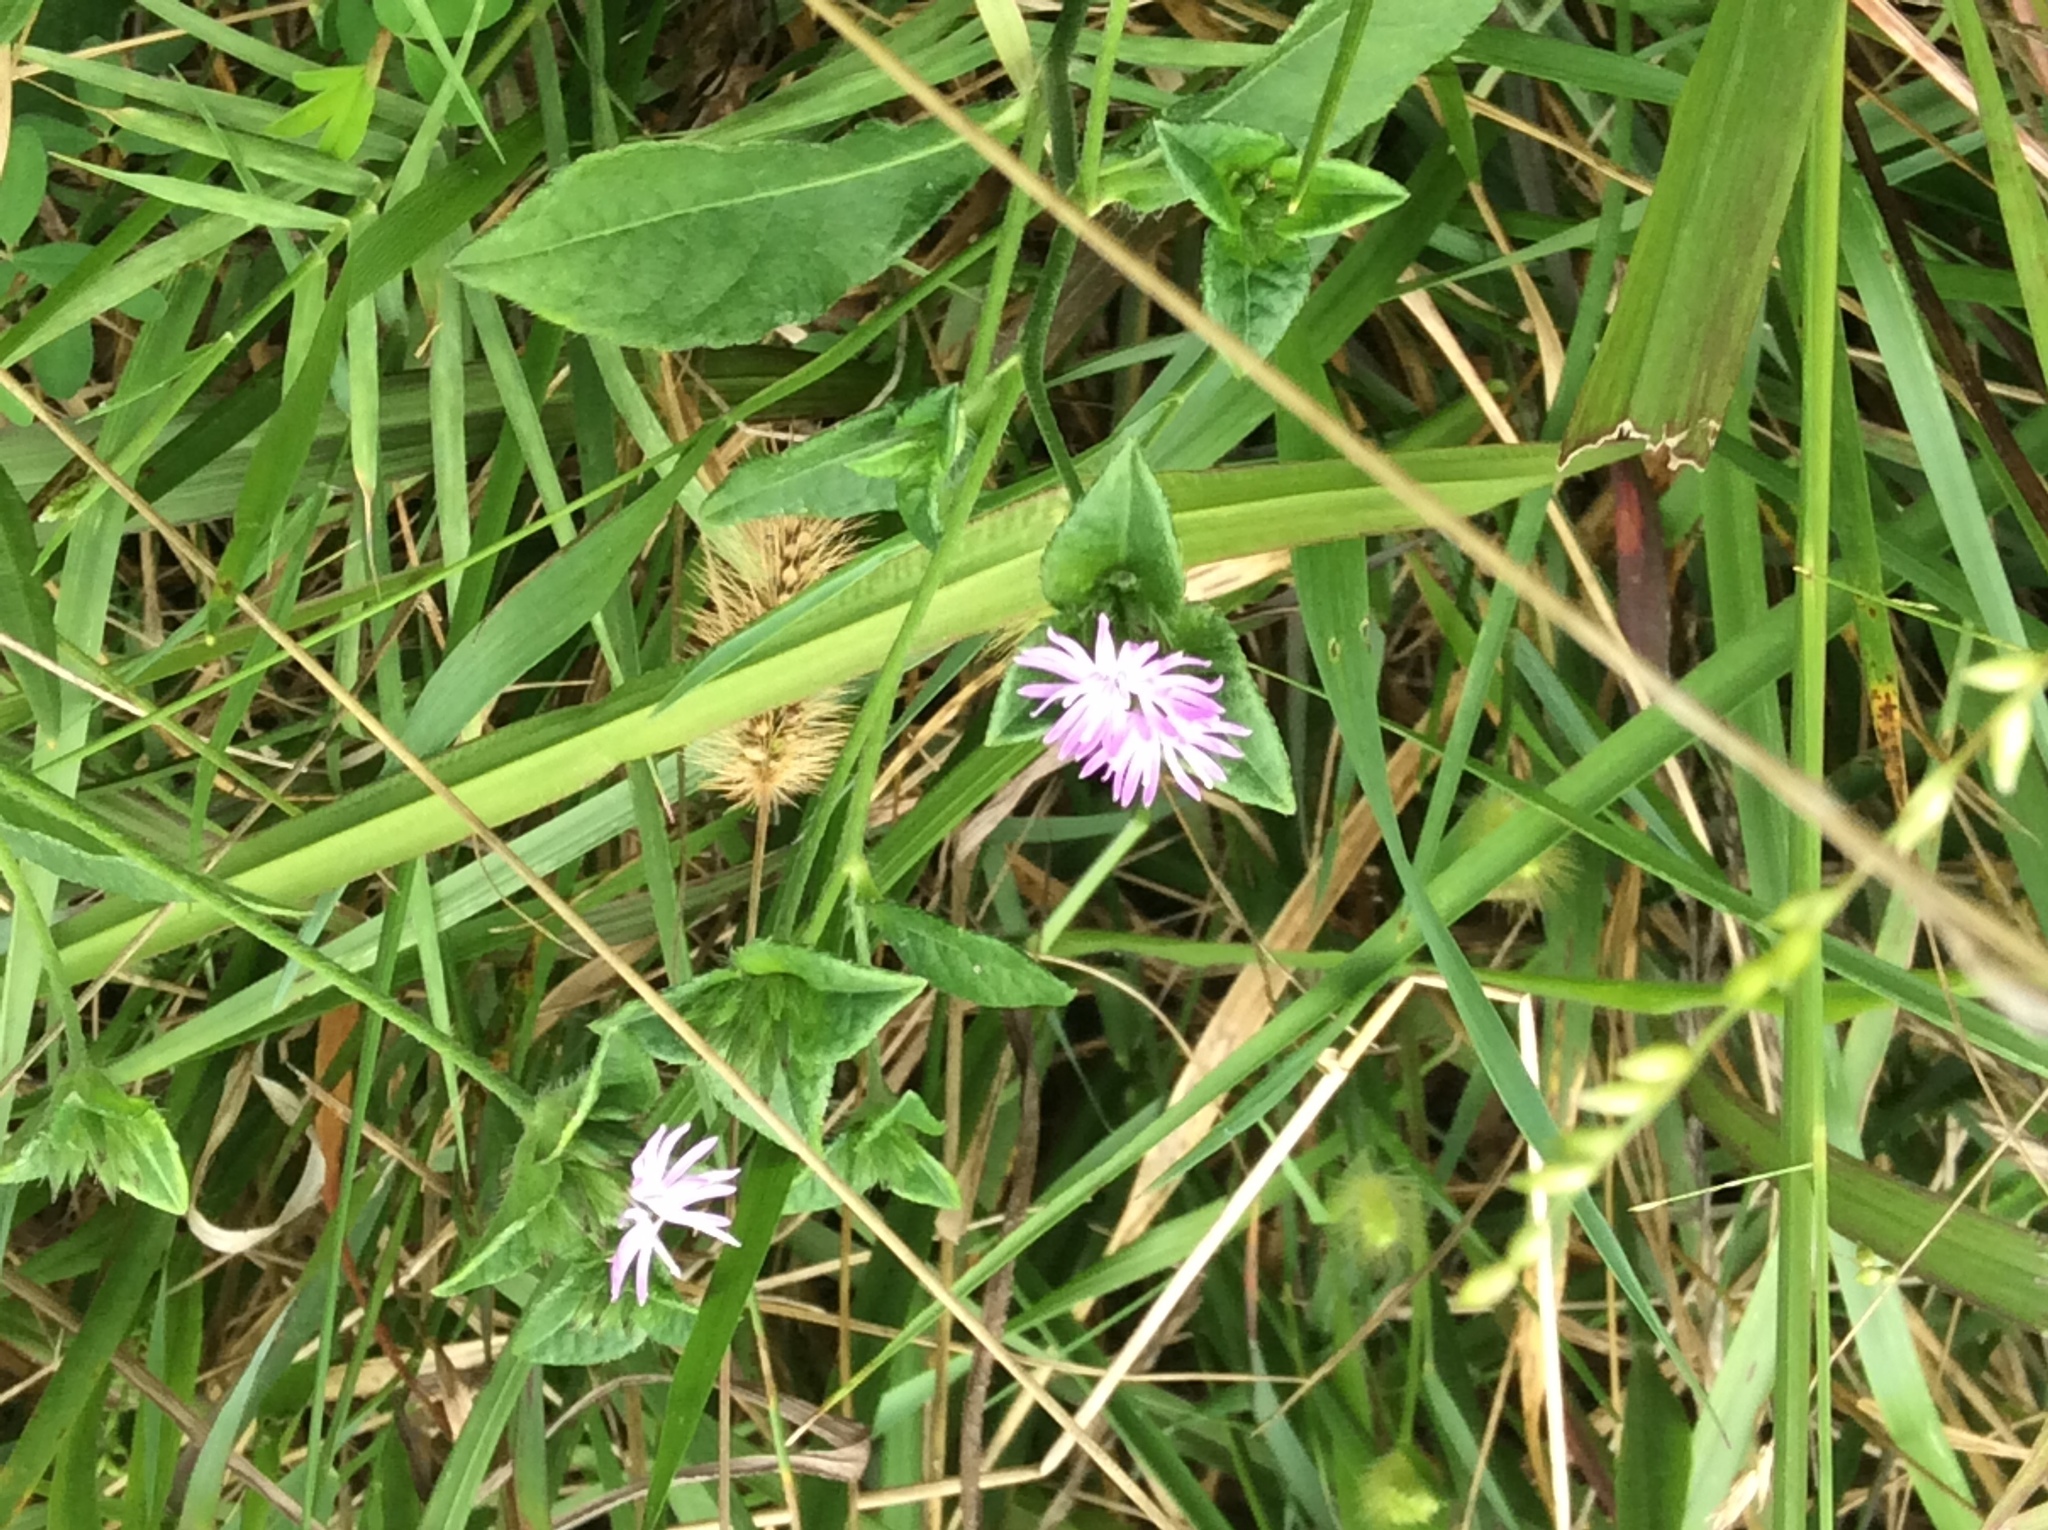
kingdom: Plantae
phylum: Tracheophyta
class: Magnoliopsida
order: Asterales
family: Asteraceae
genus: Elephantopus
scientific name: Elephantopus carolinianus
